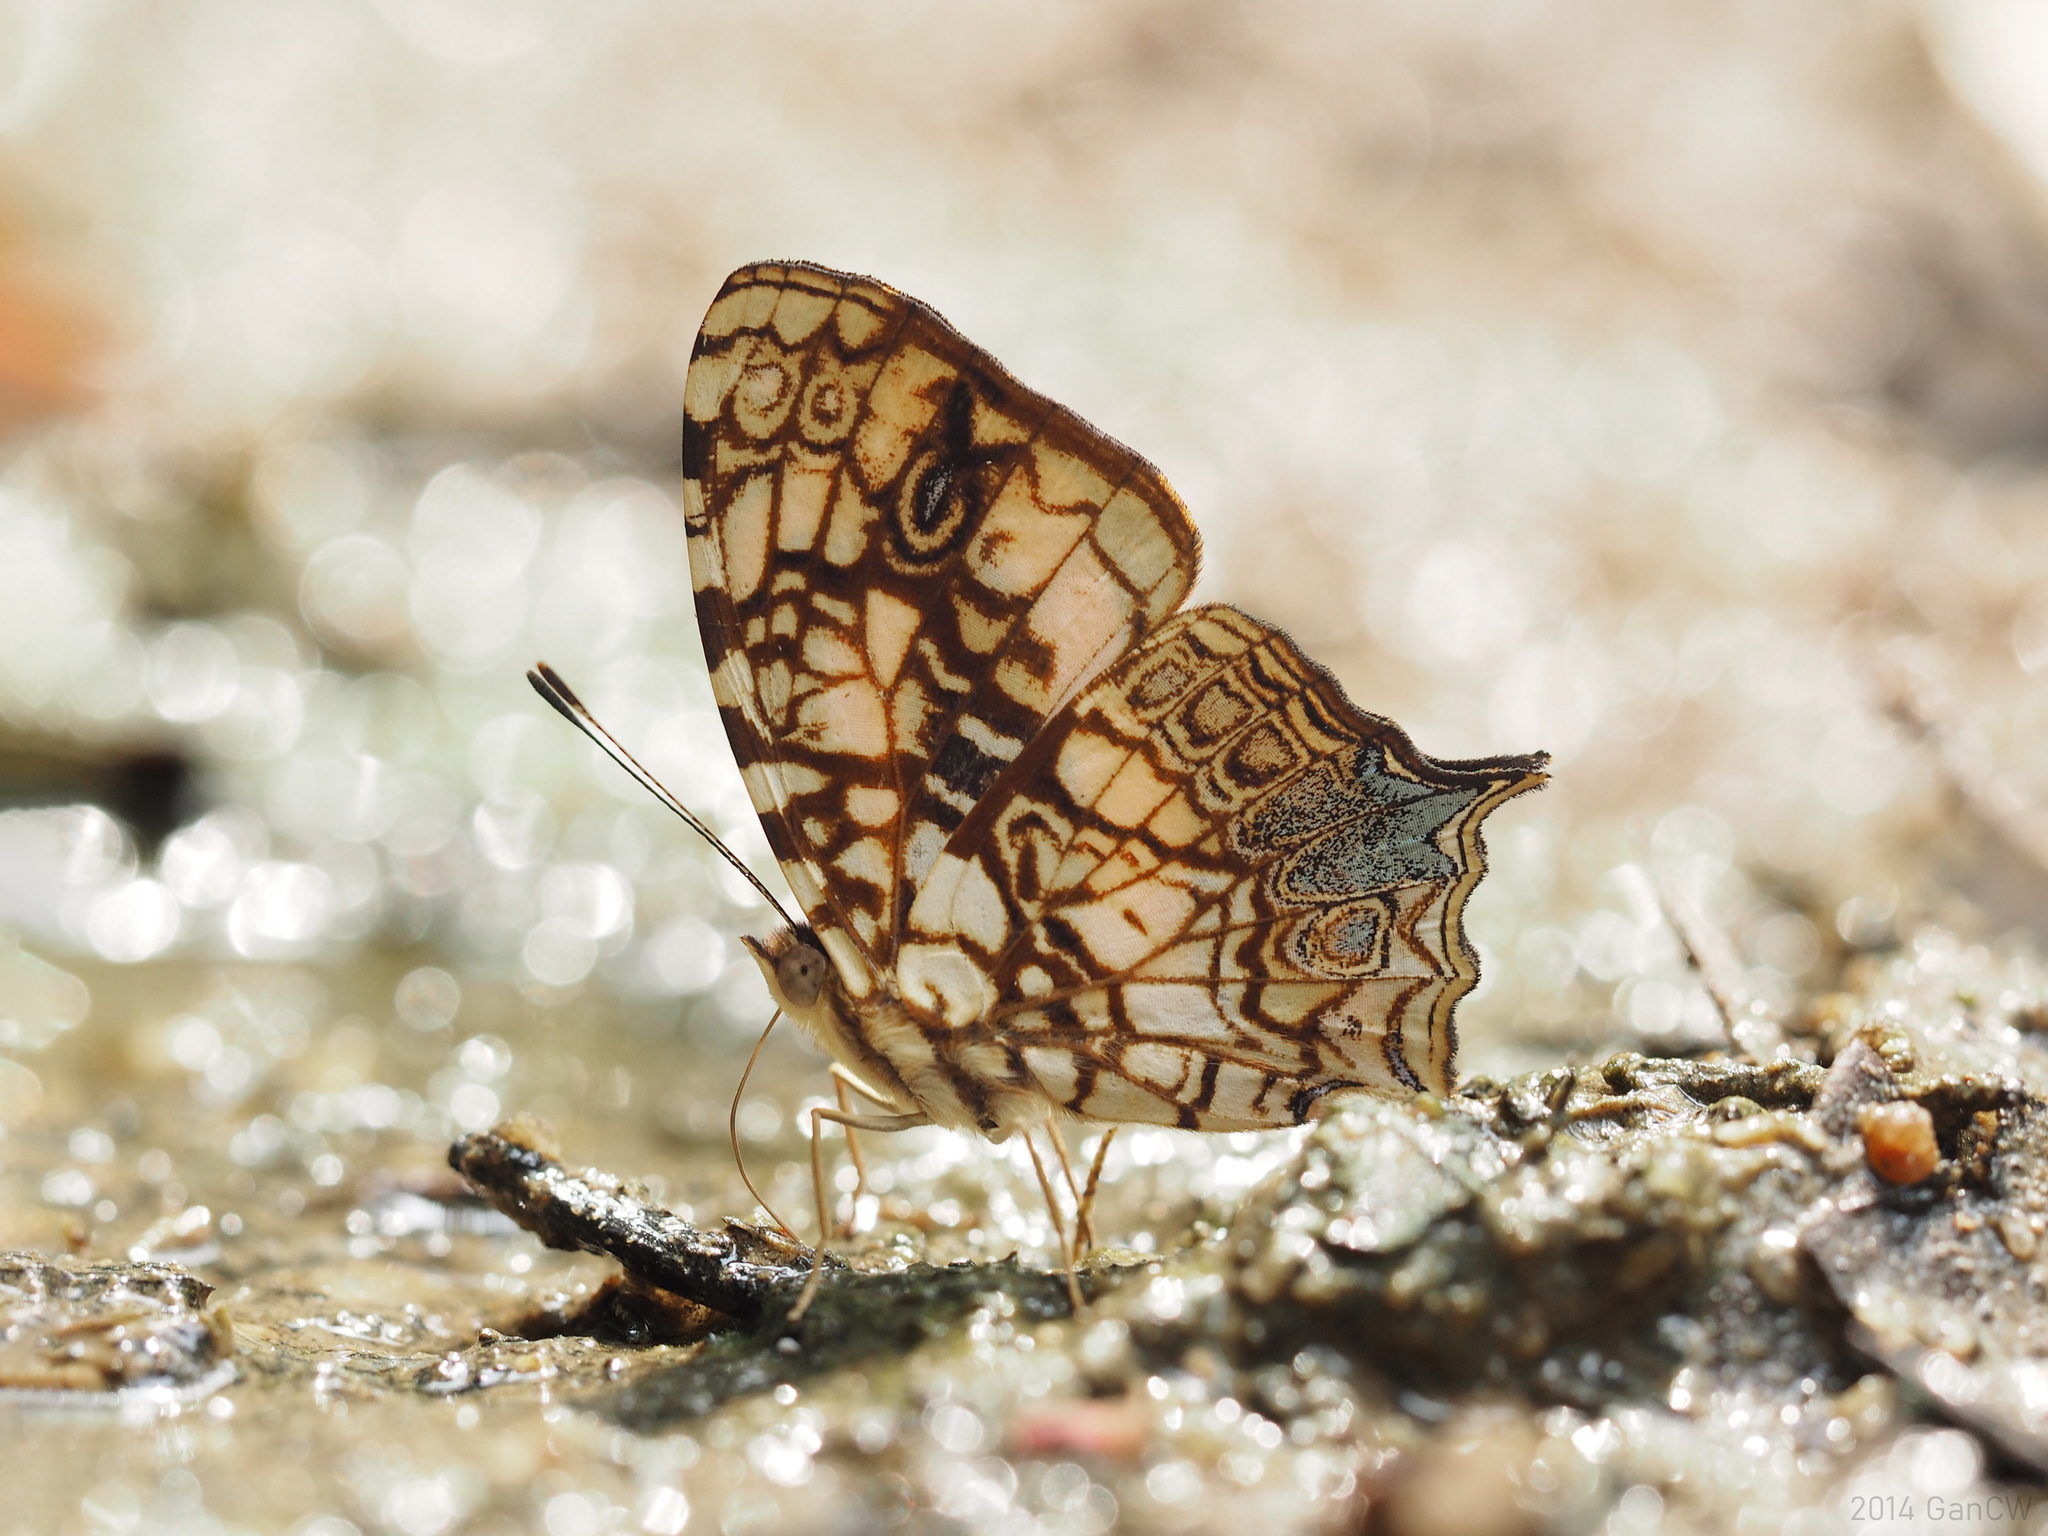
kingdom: Animalia
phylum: Arthropoda
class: Insecta
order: Lepidoptera
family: Nymphalidae
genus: Symbrenthia
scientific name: Symbrenthia hypatia
